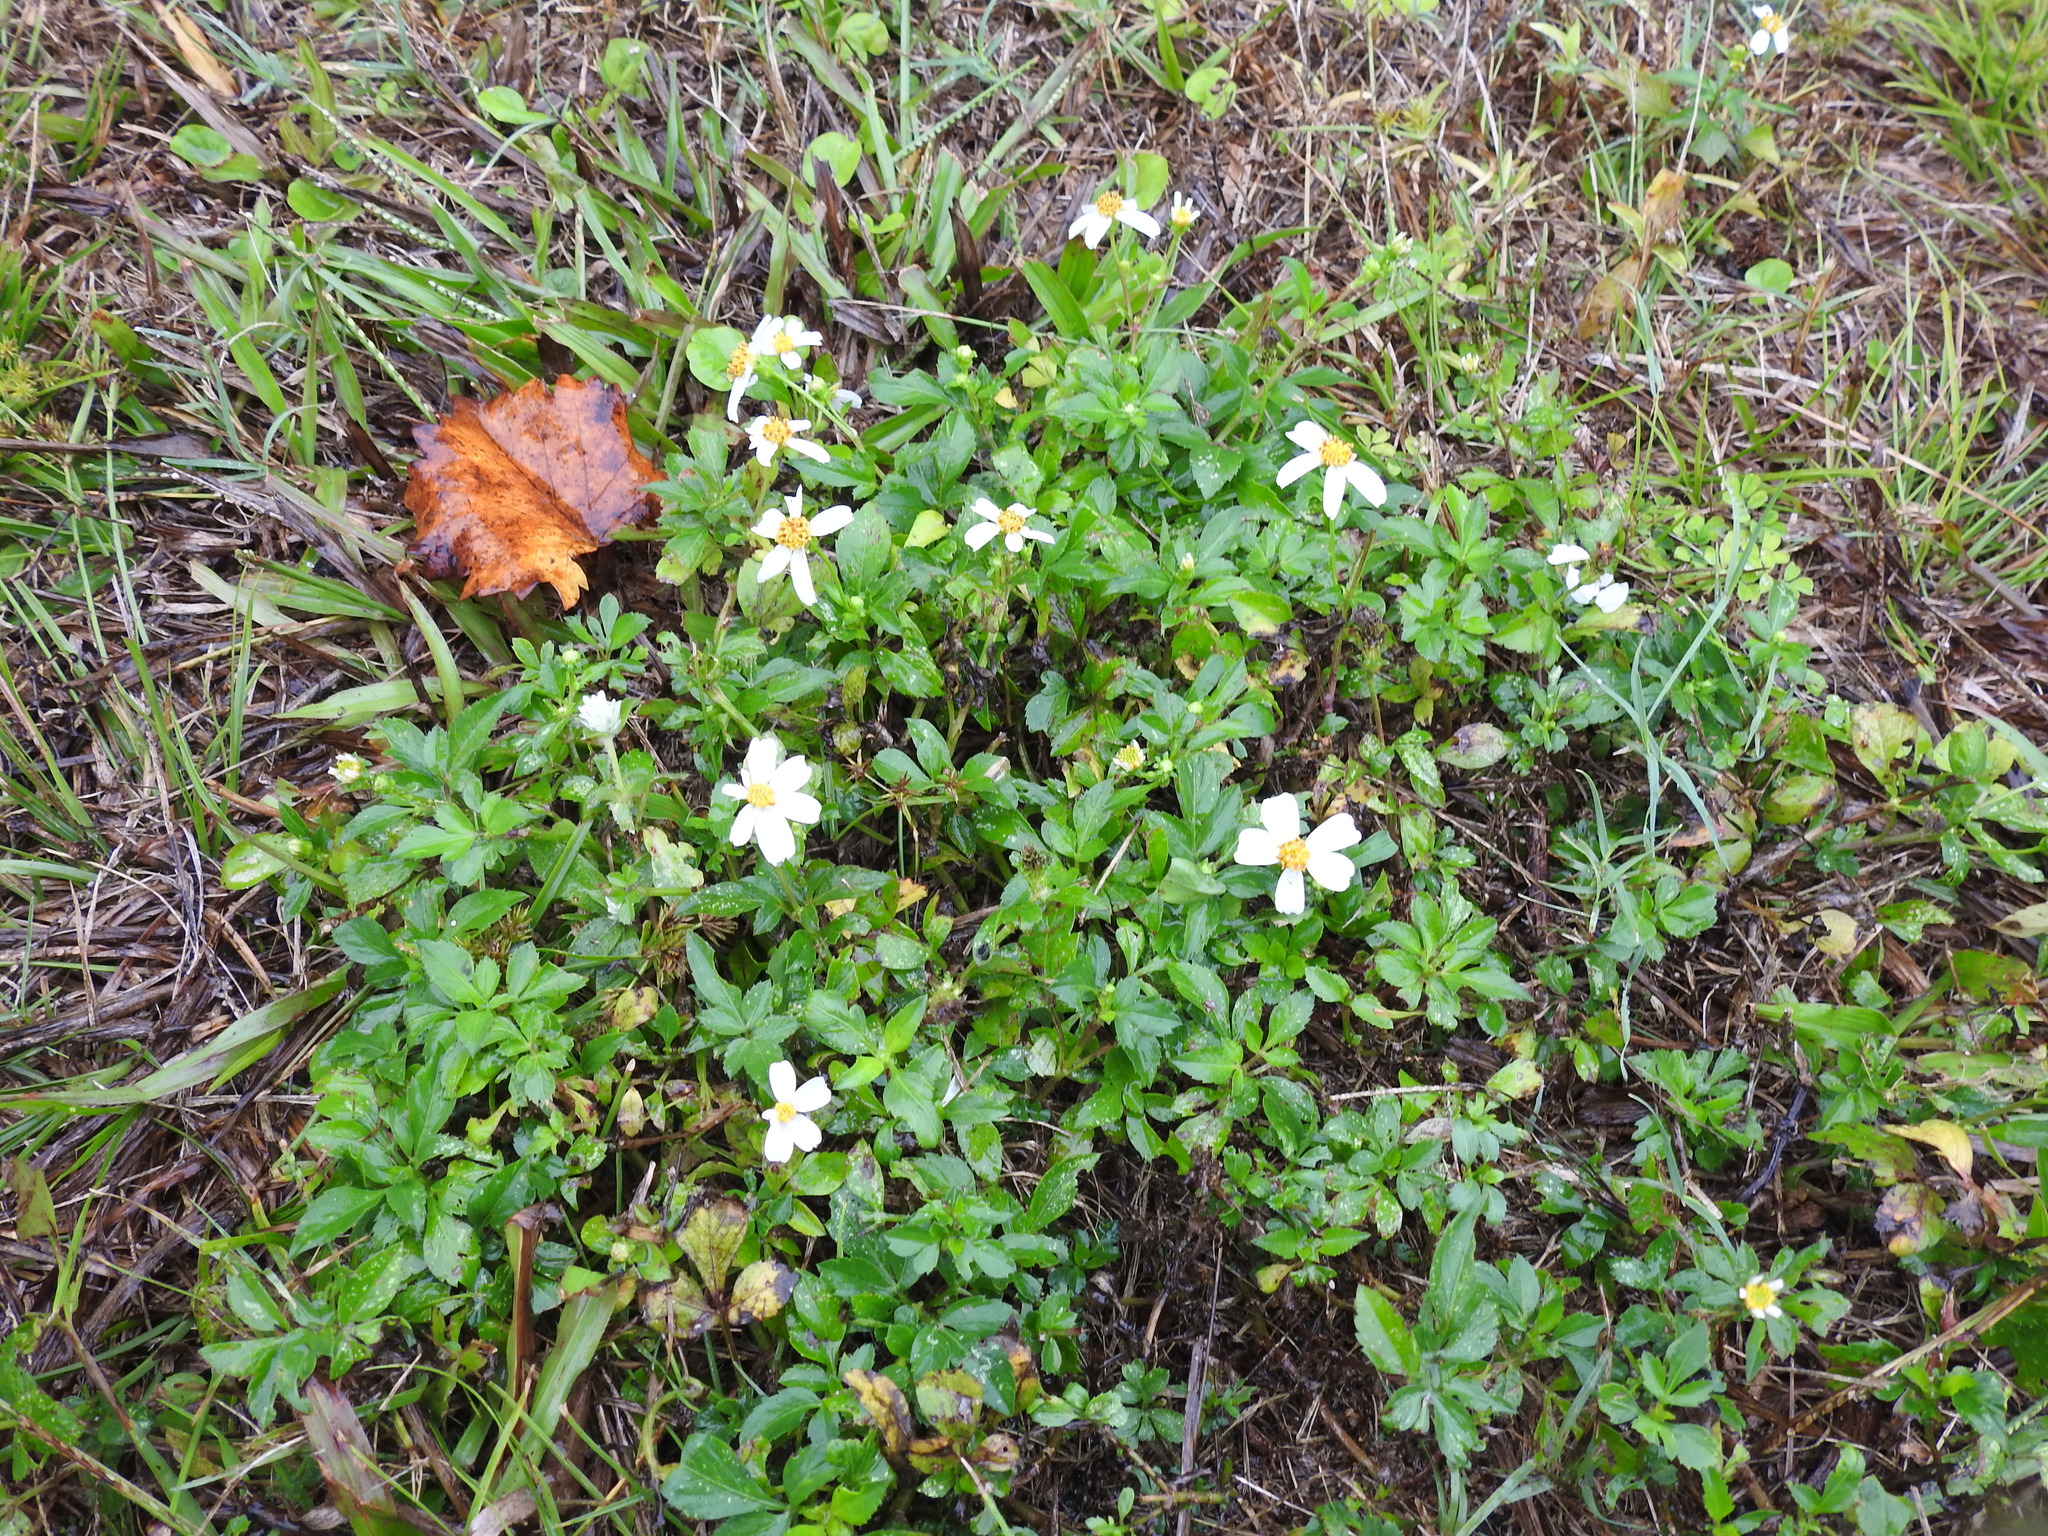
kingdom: Plantae
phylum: Tracheophyta
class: Magnoliopsida
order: Asterales
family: Asteraceae
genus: Bidens
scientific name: Bidens alba
